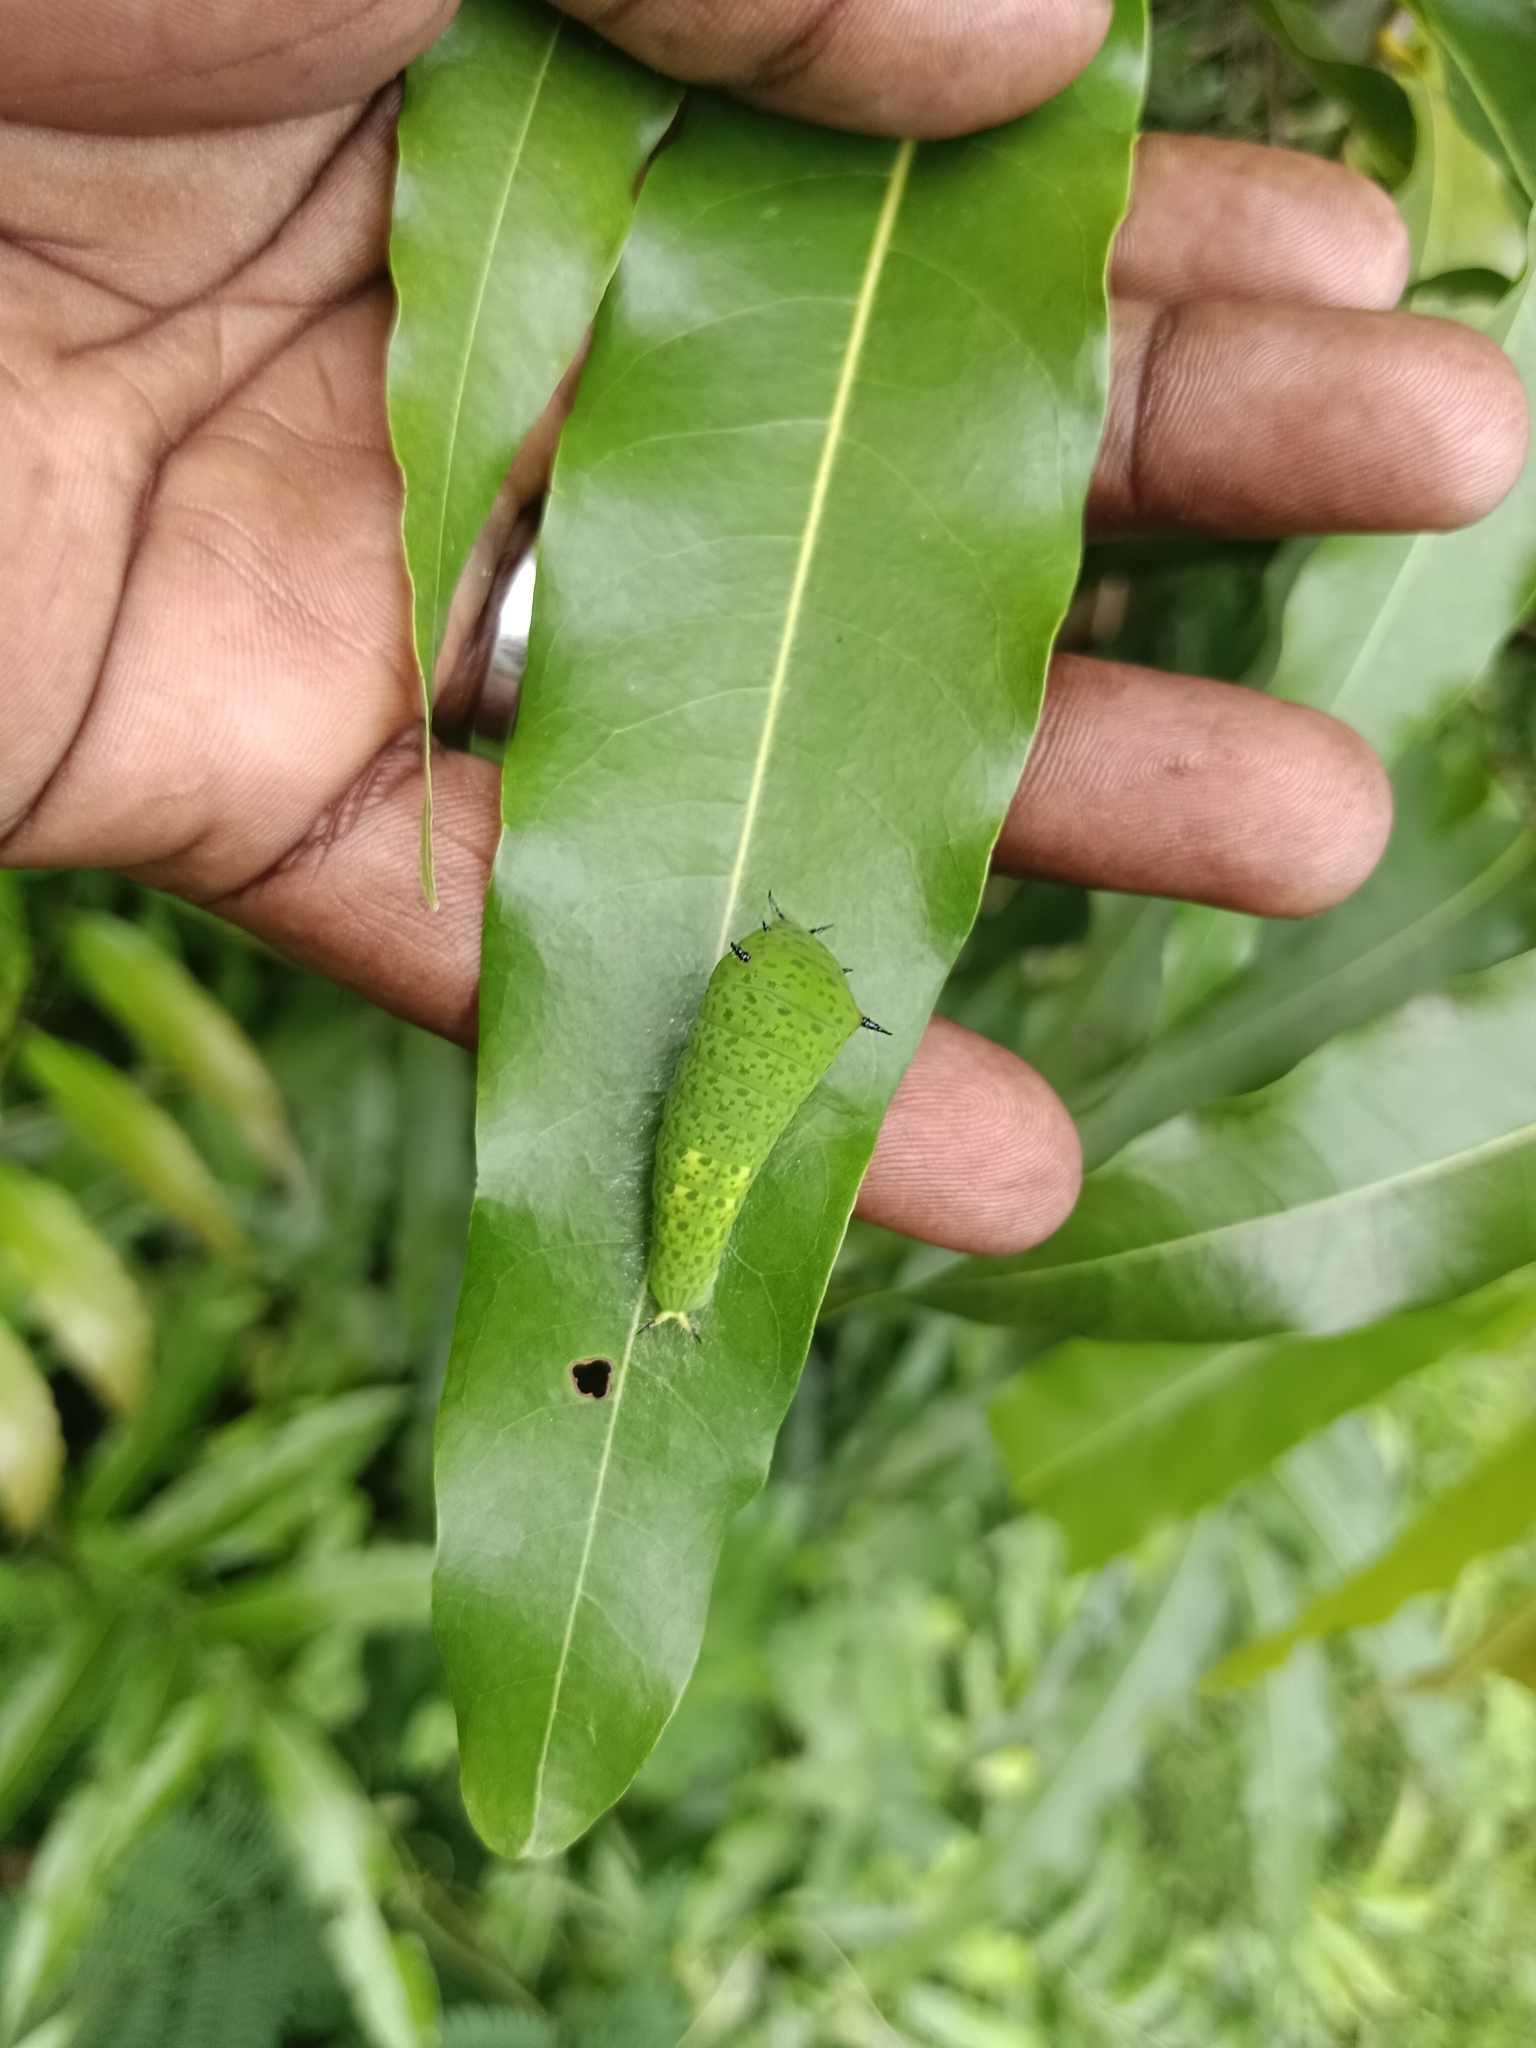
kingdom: Animalia
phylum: Arthropoda
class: Insecta
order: Lepidoptera
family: Papilionidae
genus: Graphium
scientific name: Graphium agamemnon
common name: Tailed jay
